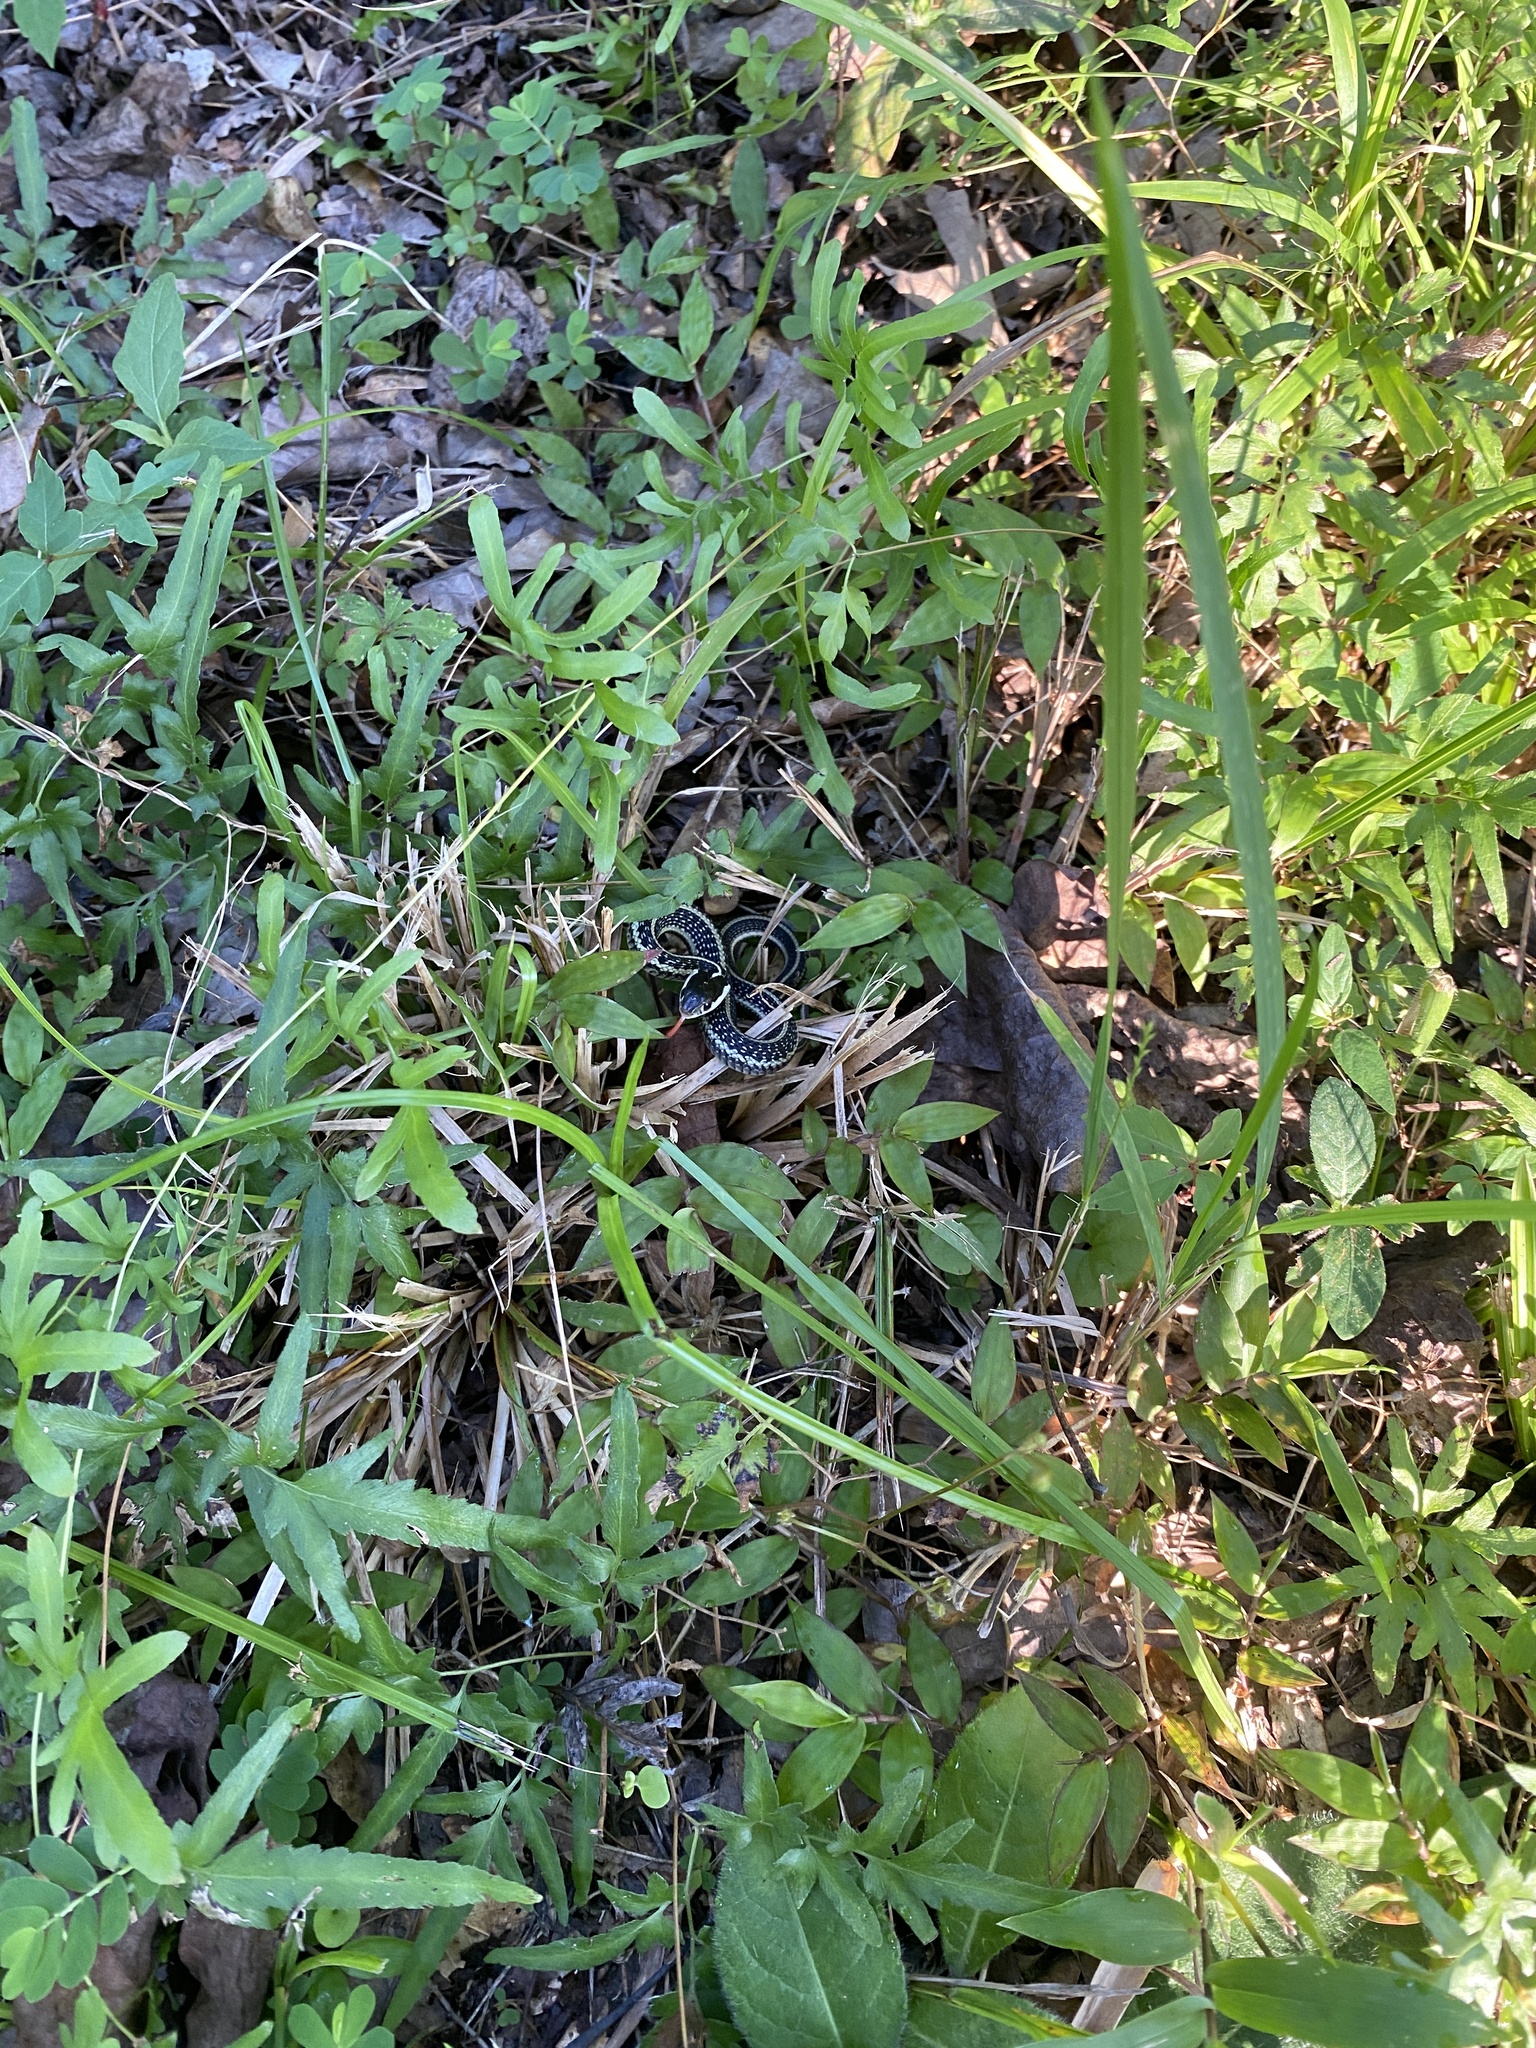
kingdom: Animalia
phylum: Chordata
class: Squamata
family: Colubridae
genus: Thamnophis
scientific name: Thamnophis sirtalis
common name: Common garter snake
